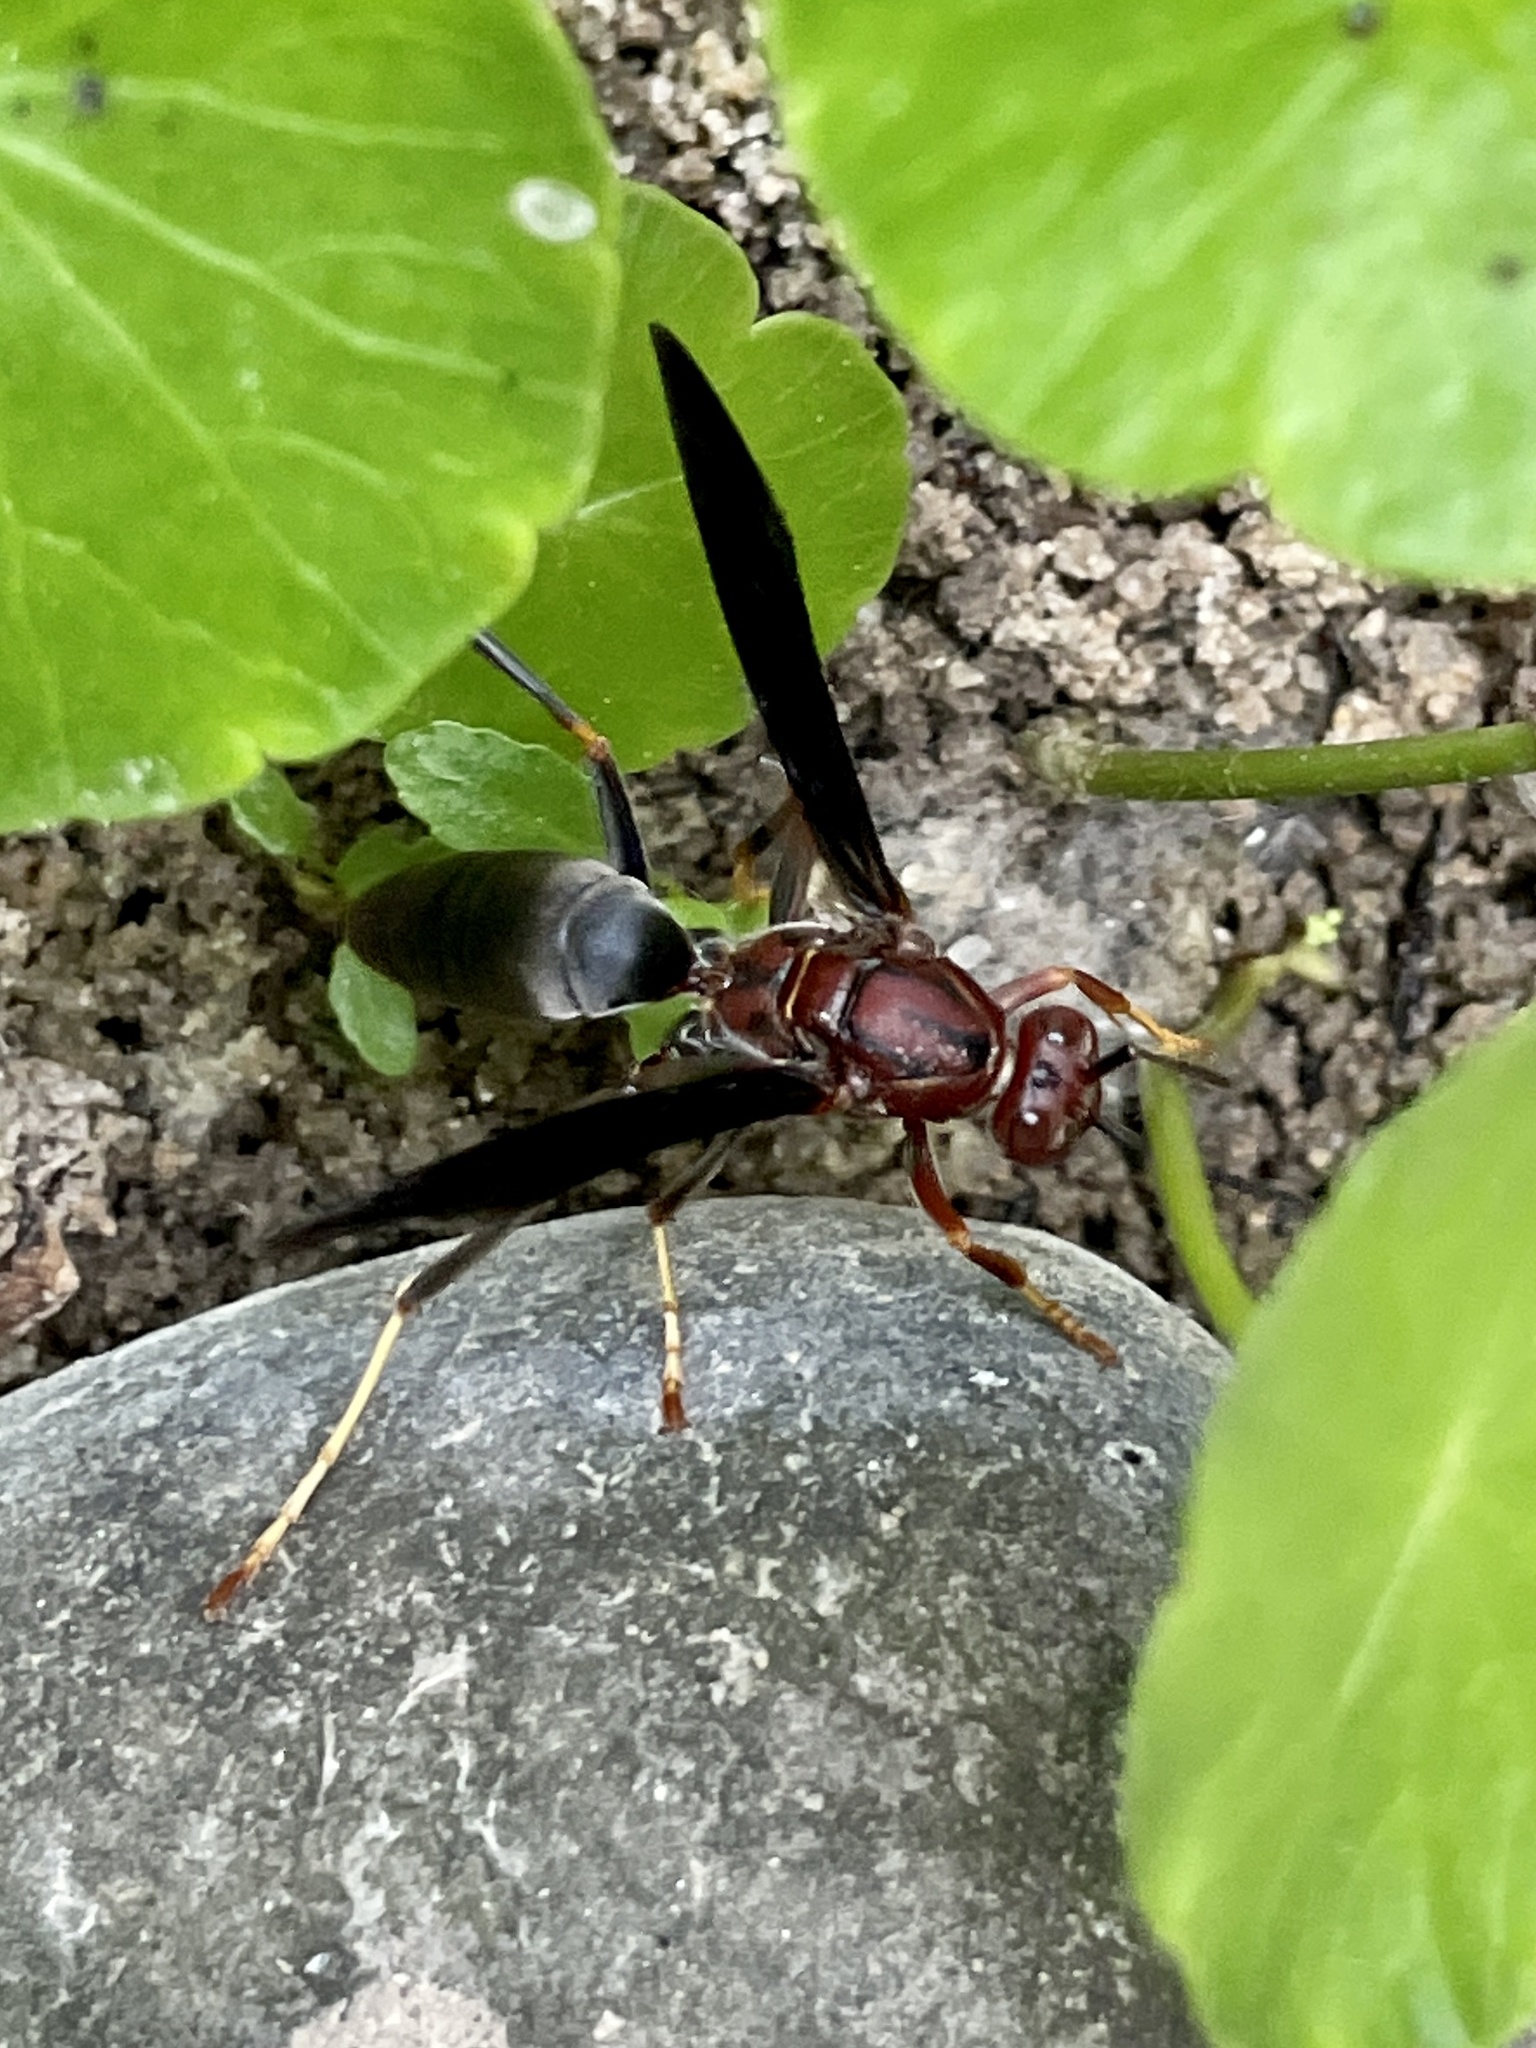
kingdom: Animalia
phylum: Arthropoda
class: Insecta
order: Hymenoptera
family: Eumenidae
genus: Polistes
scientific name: Polistes metricus
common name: Metric paper wasp
